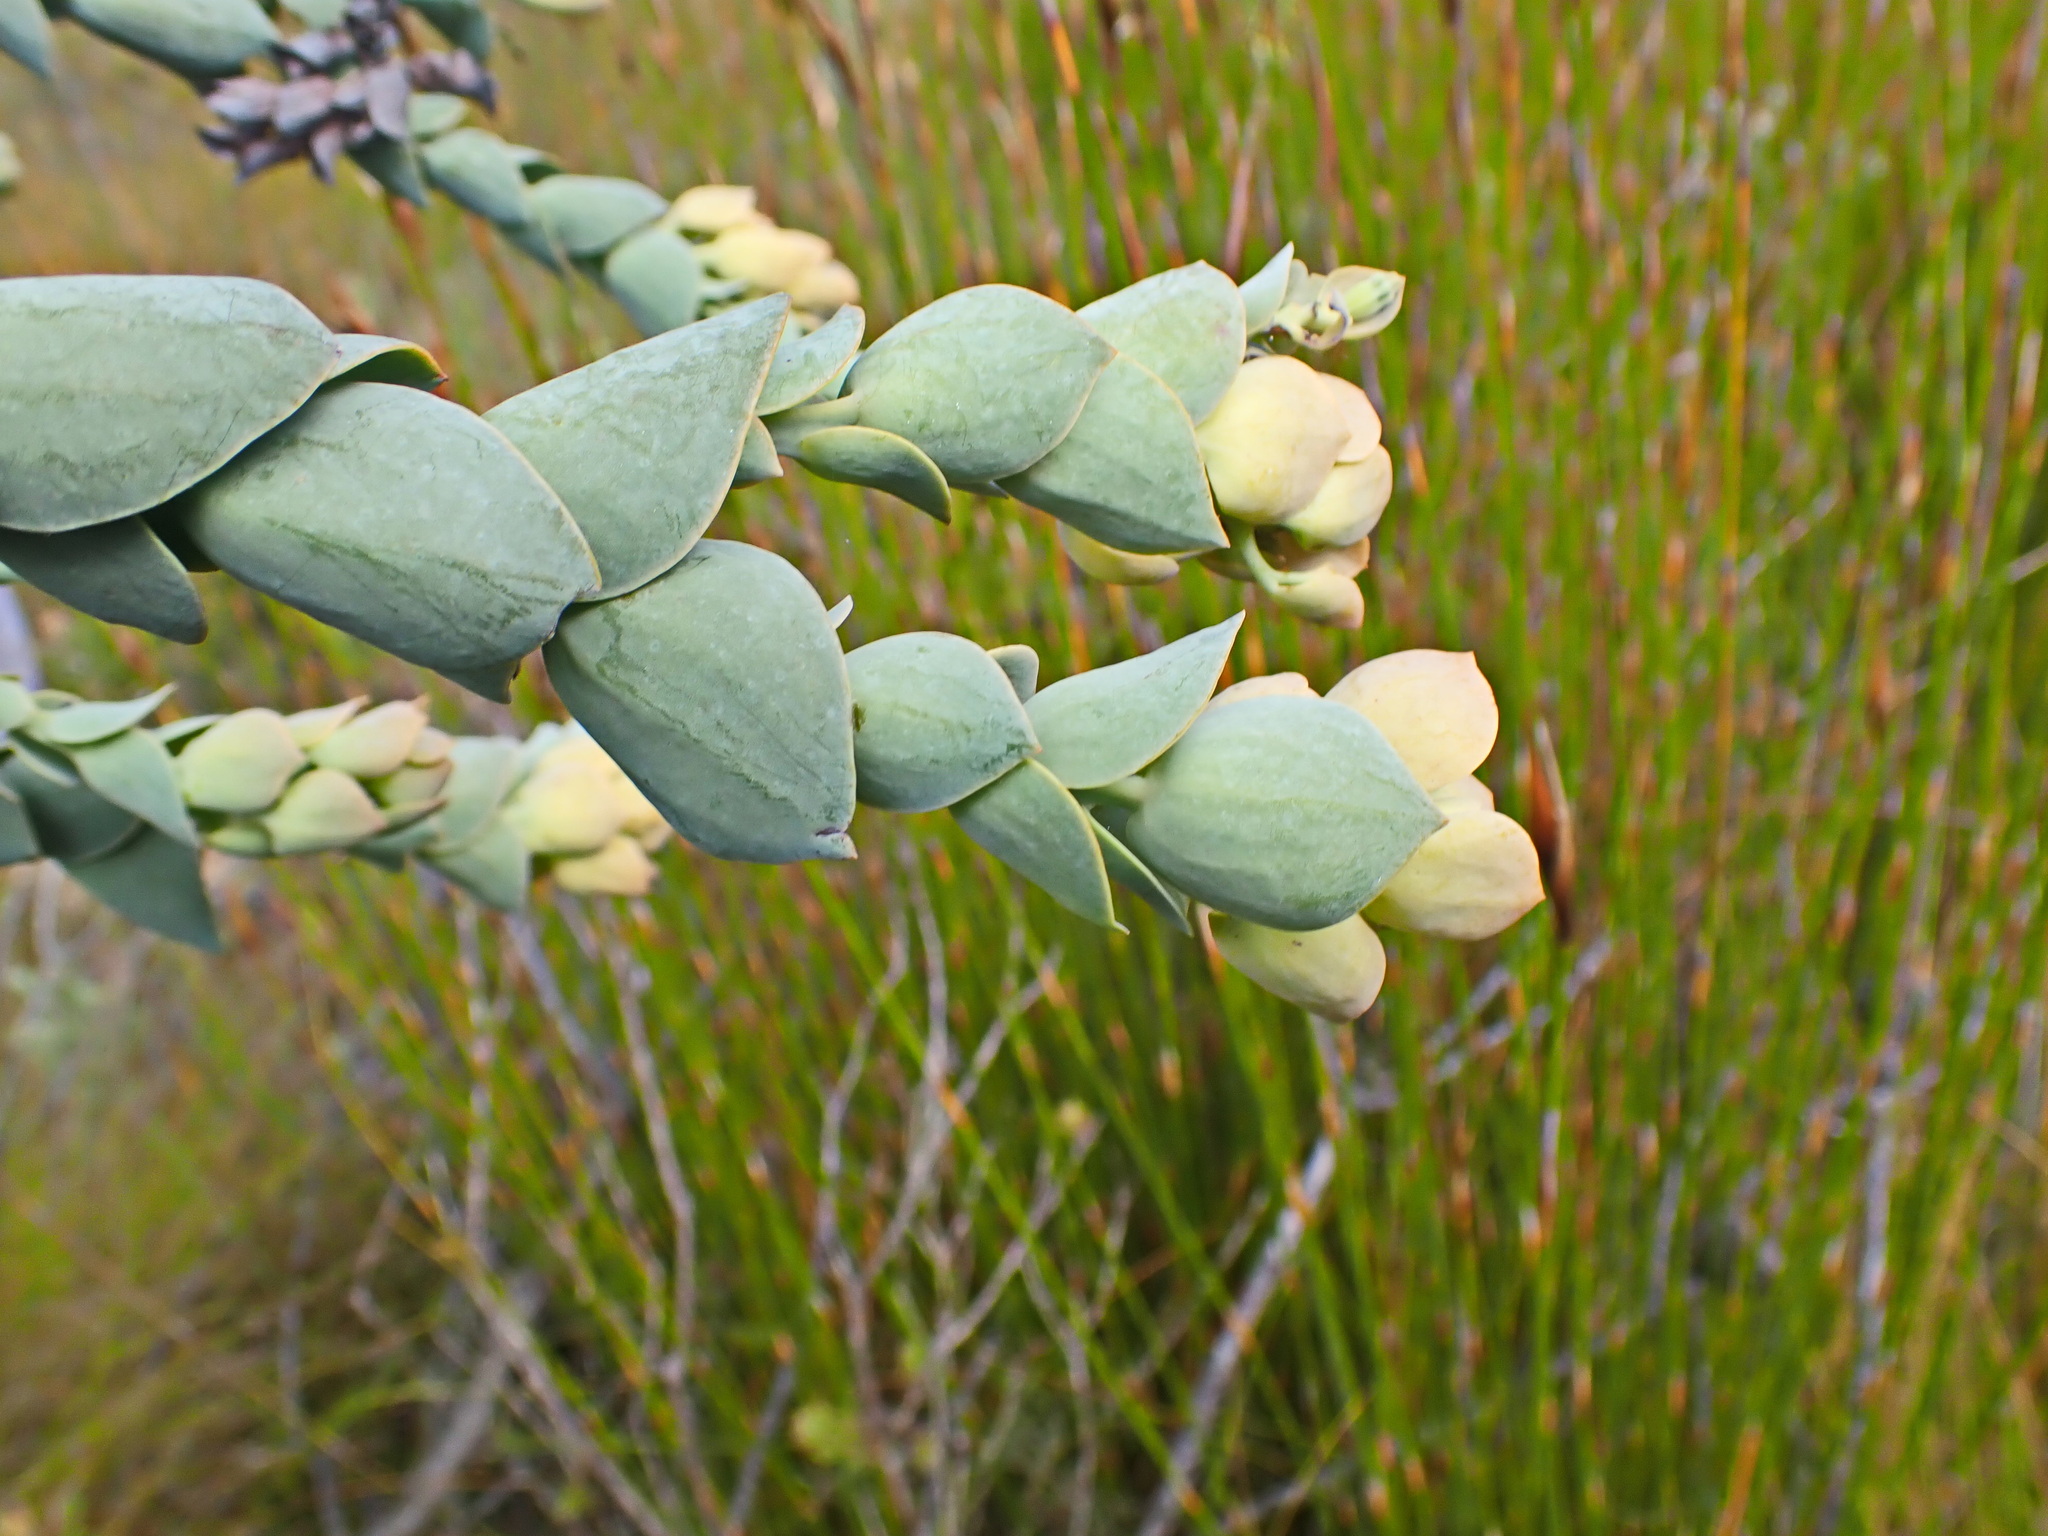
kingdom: Plantae
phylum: Tracheophyta
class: Magnoliopsida
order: Santalales
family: Thesiaceae
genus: Thesium
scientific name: Thesium euphorbioides
